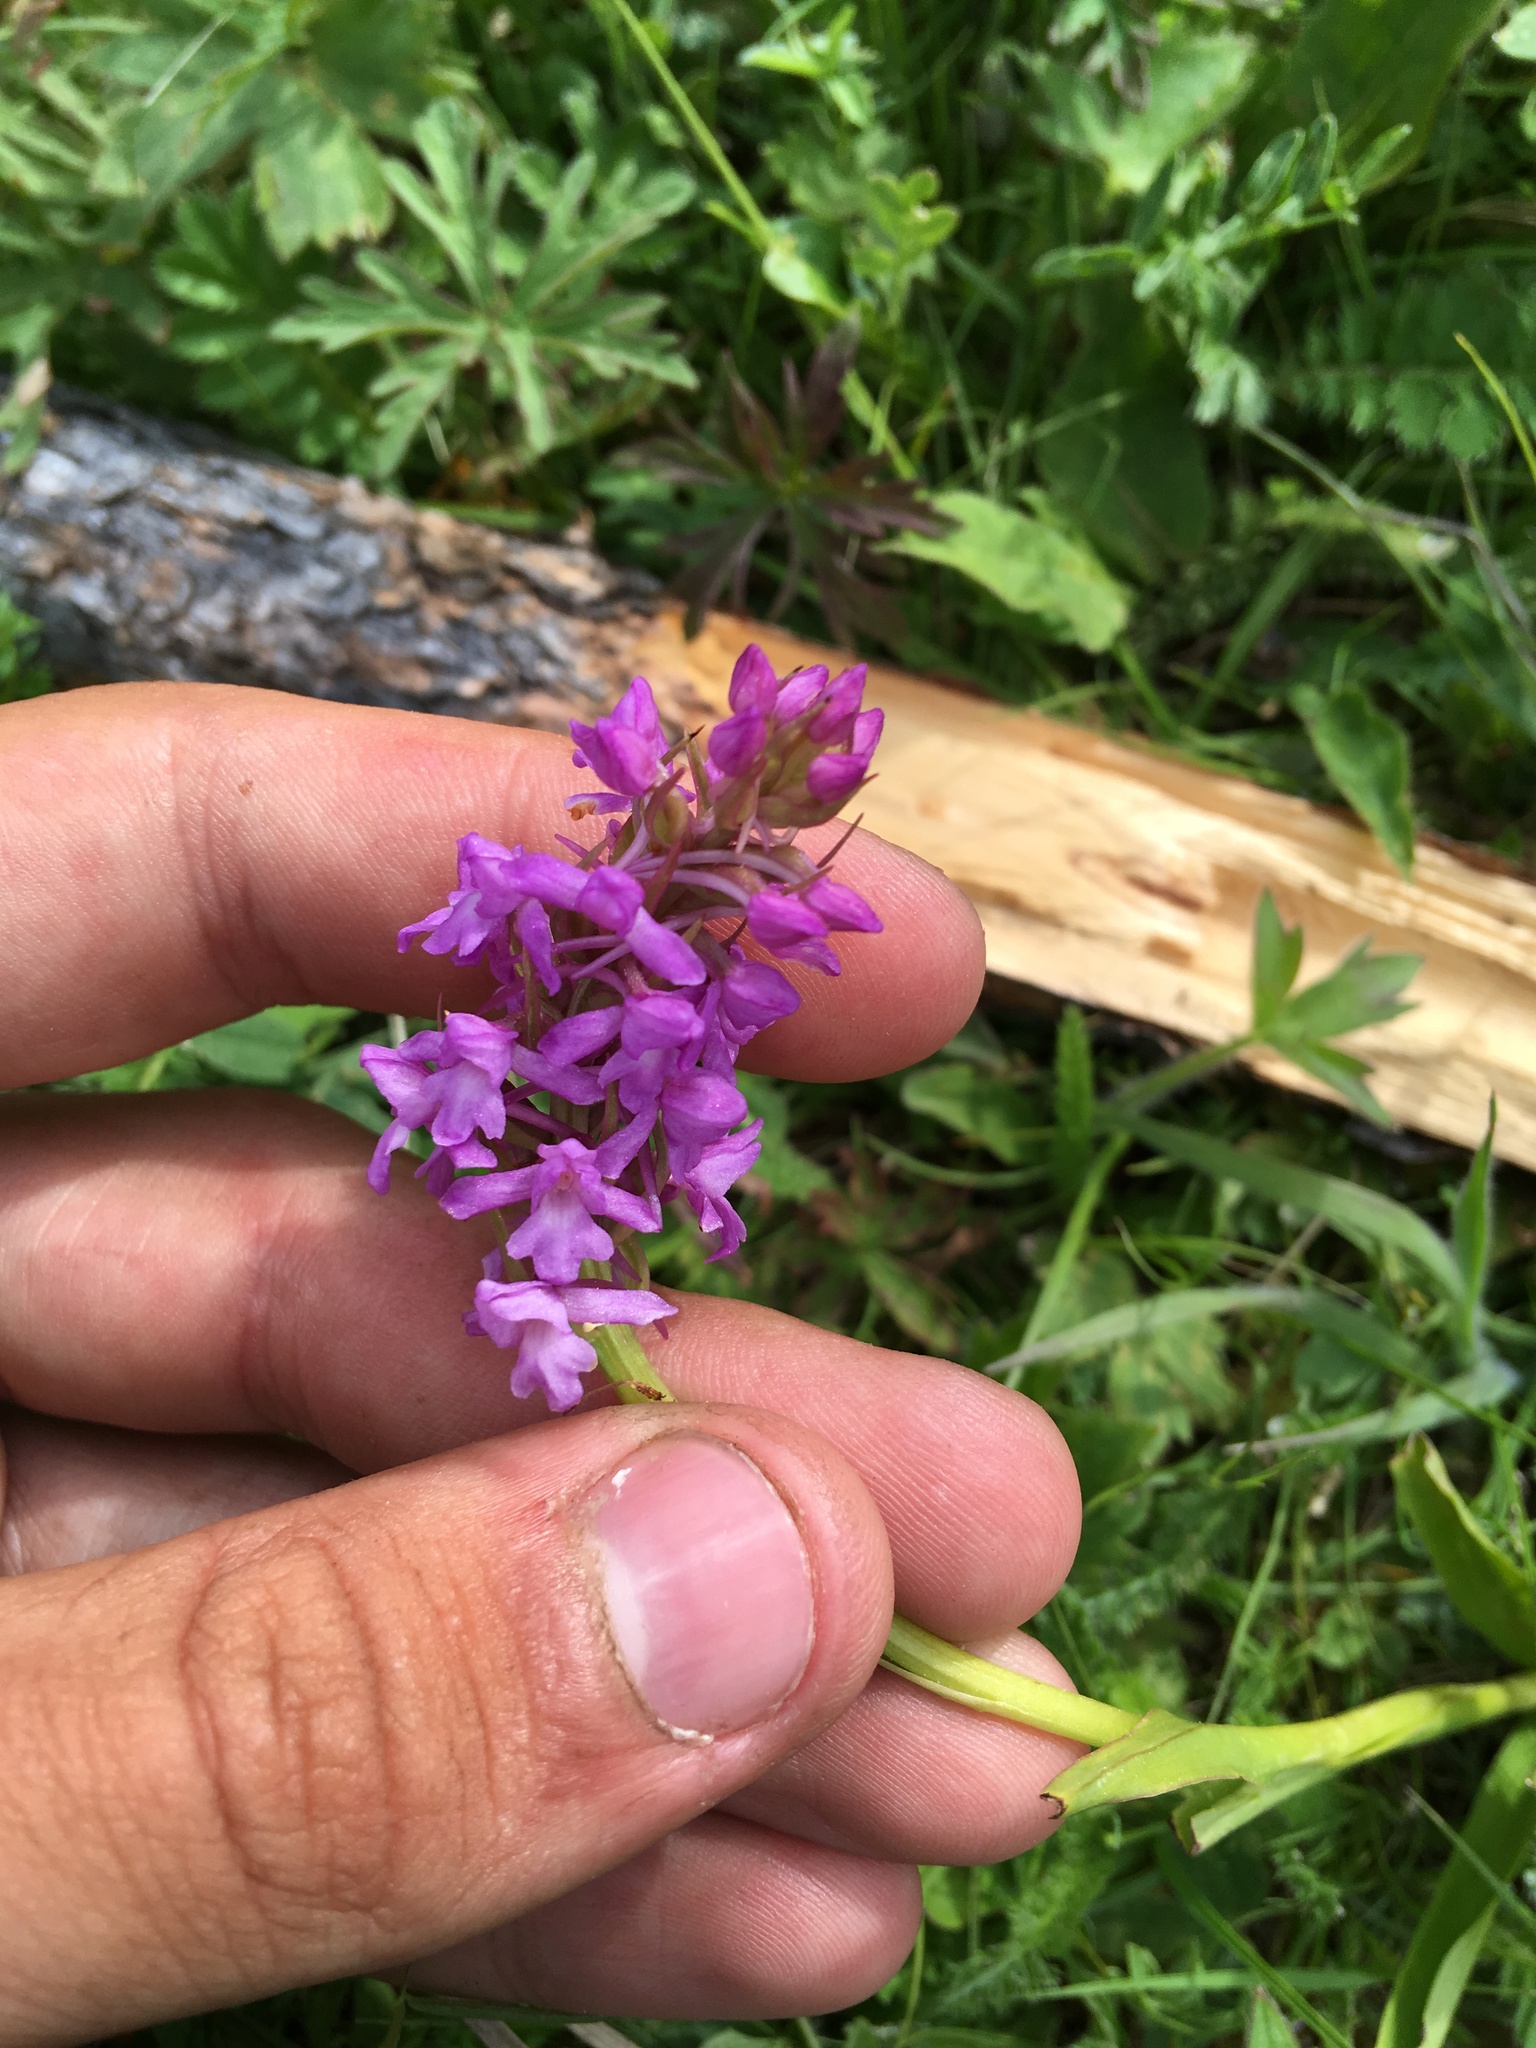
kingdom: Plantae
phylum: Tracheophyta
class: Liliopsida
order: Asparagales
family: Orchidaceae
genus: Gymnadenia
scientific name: Gymnadenia conopsea
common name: Fragrant orchid
